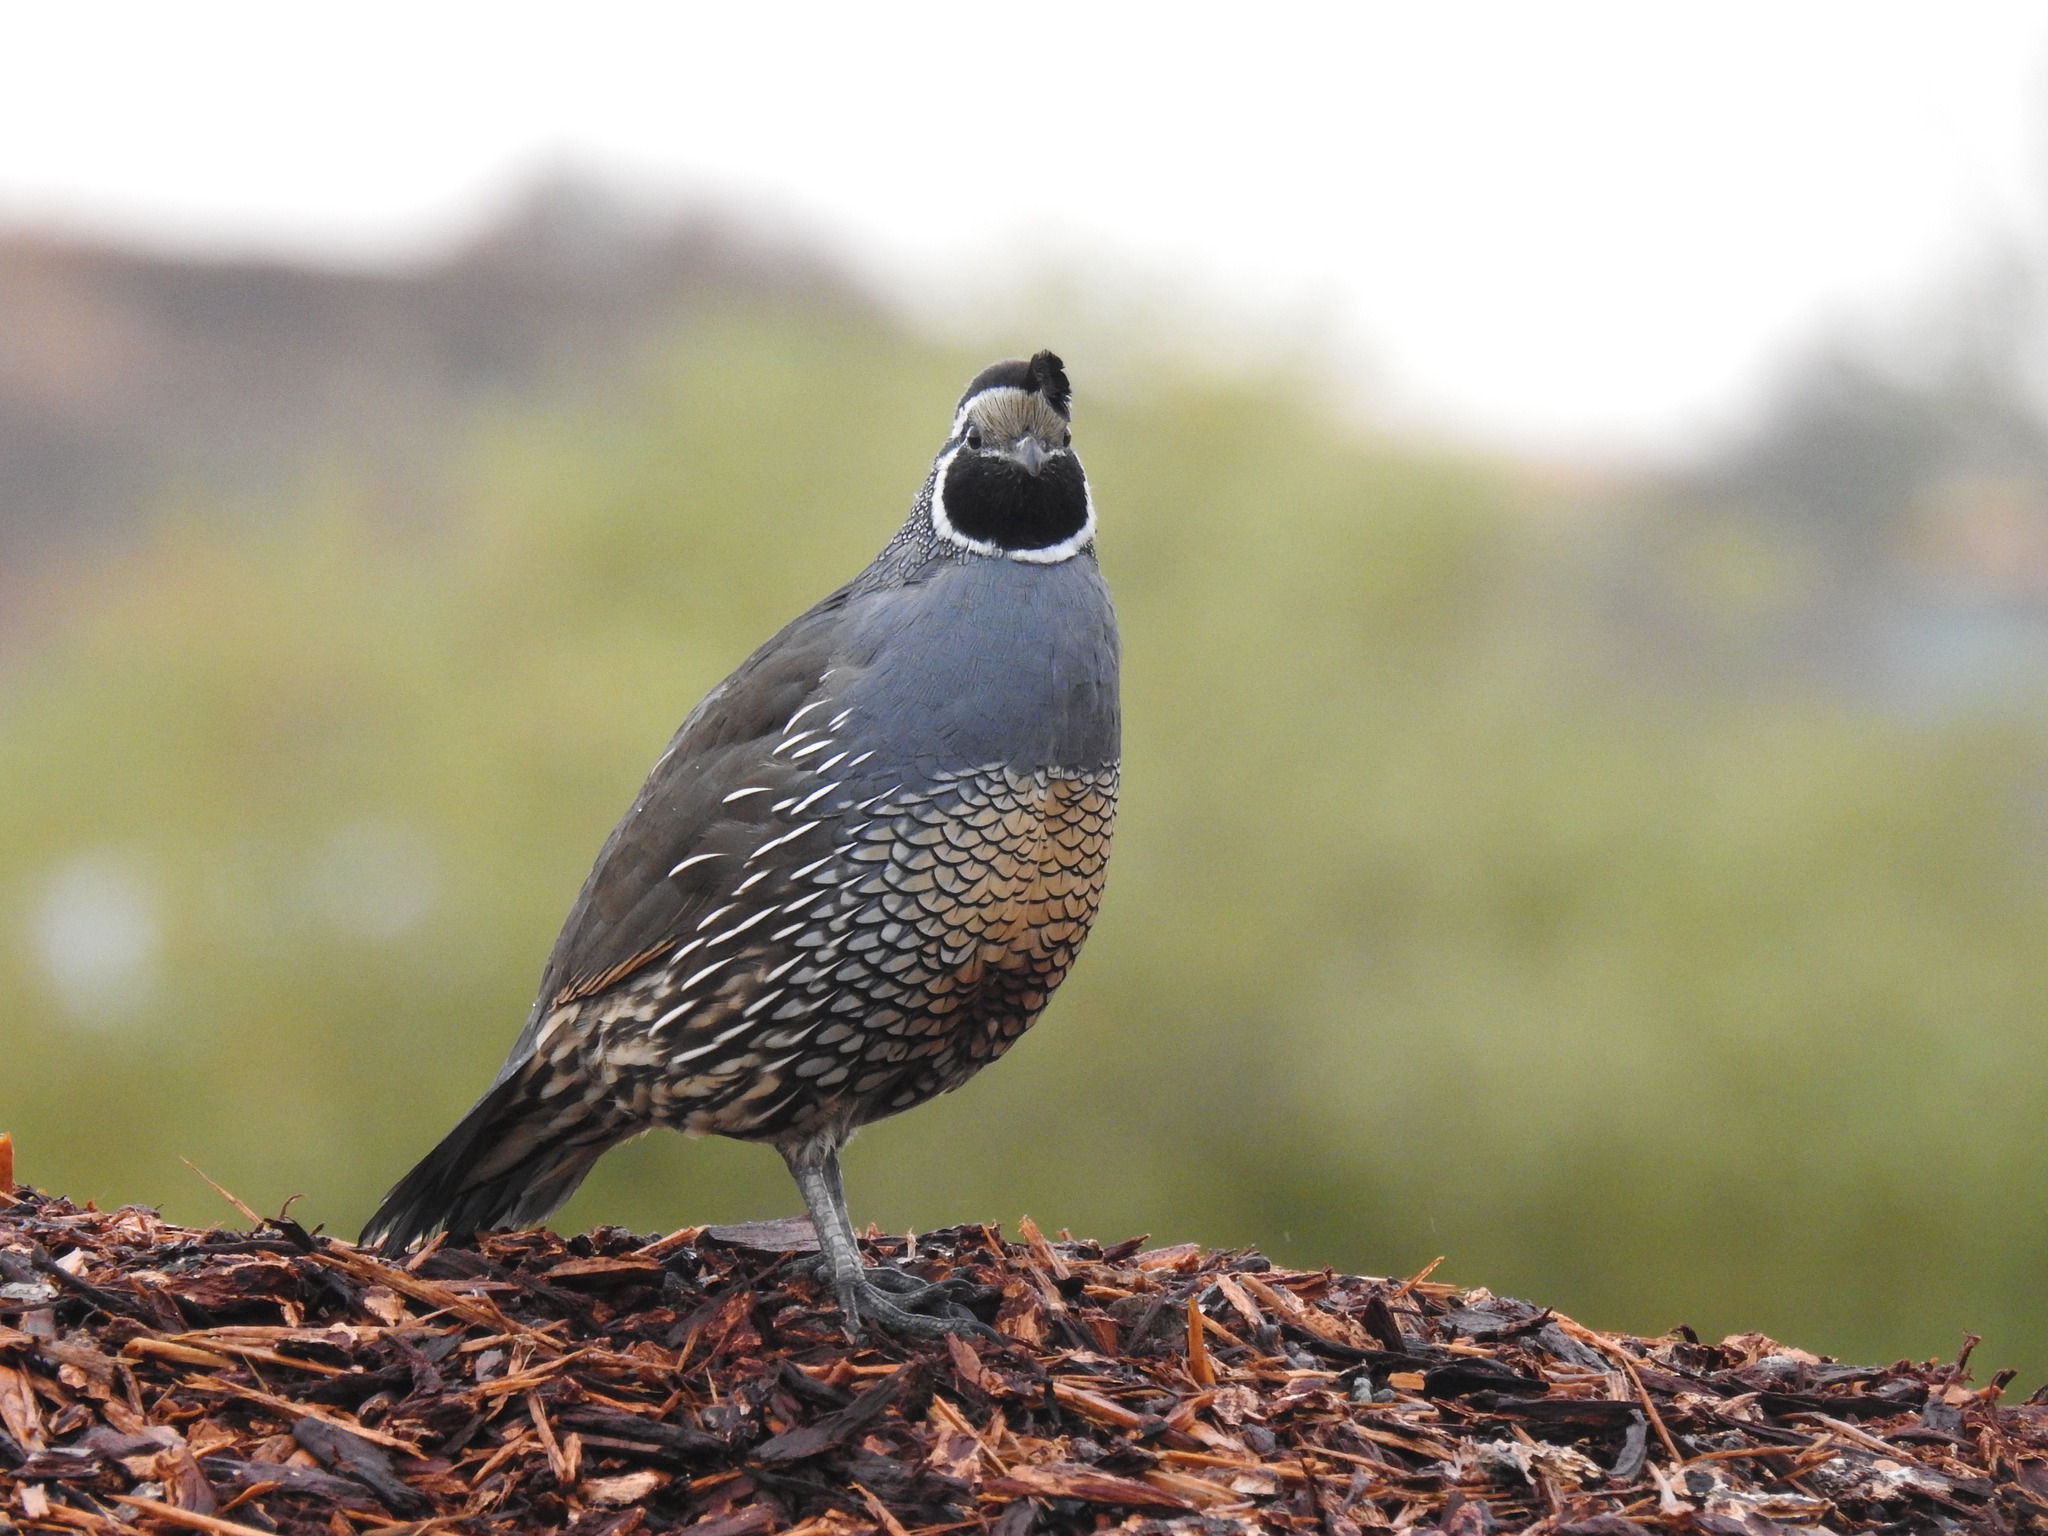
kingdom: Animalia
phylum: Chordata
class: Aves
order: Galliformes
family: Odontophoridae
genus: Callipepla
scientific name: Callipepla californica
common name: California quail
